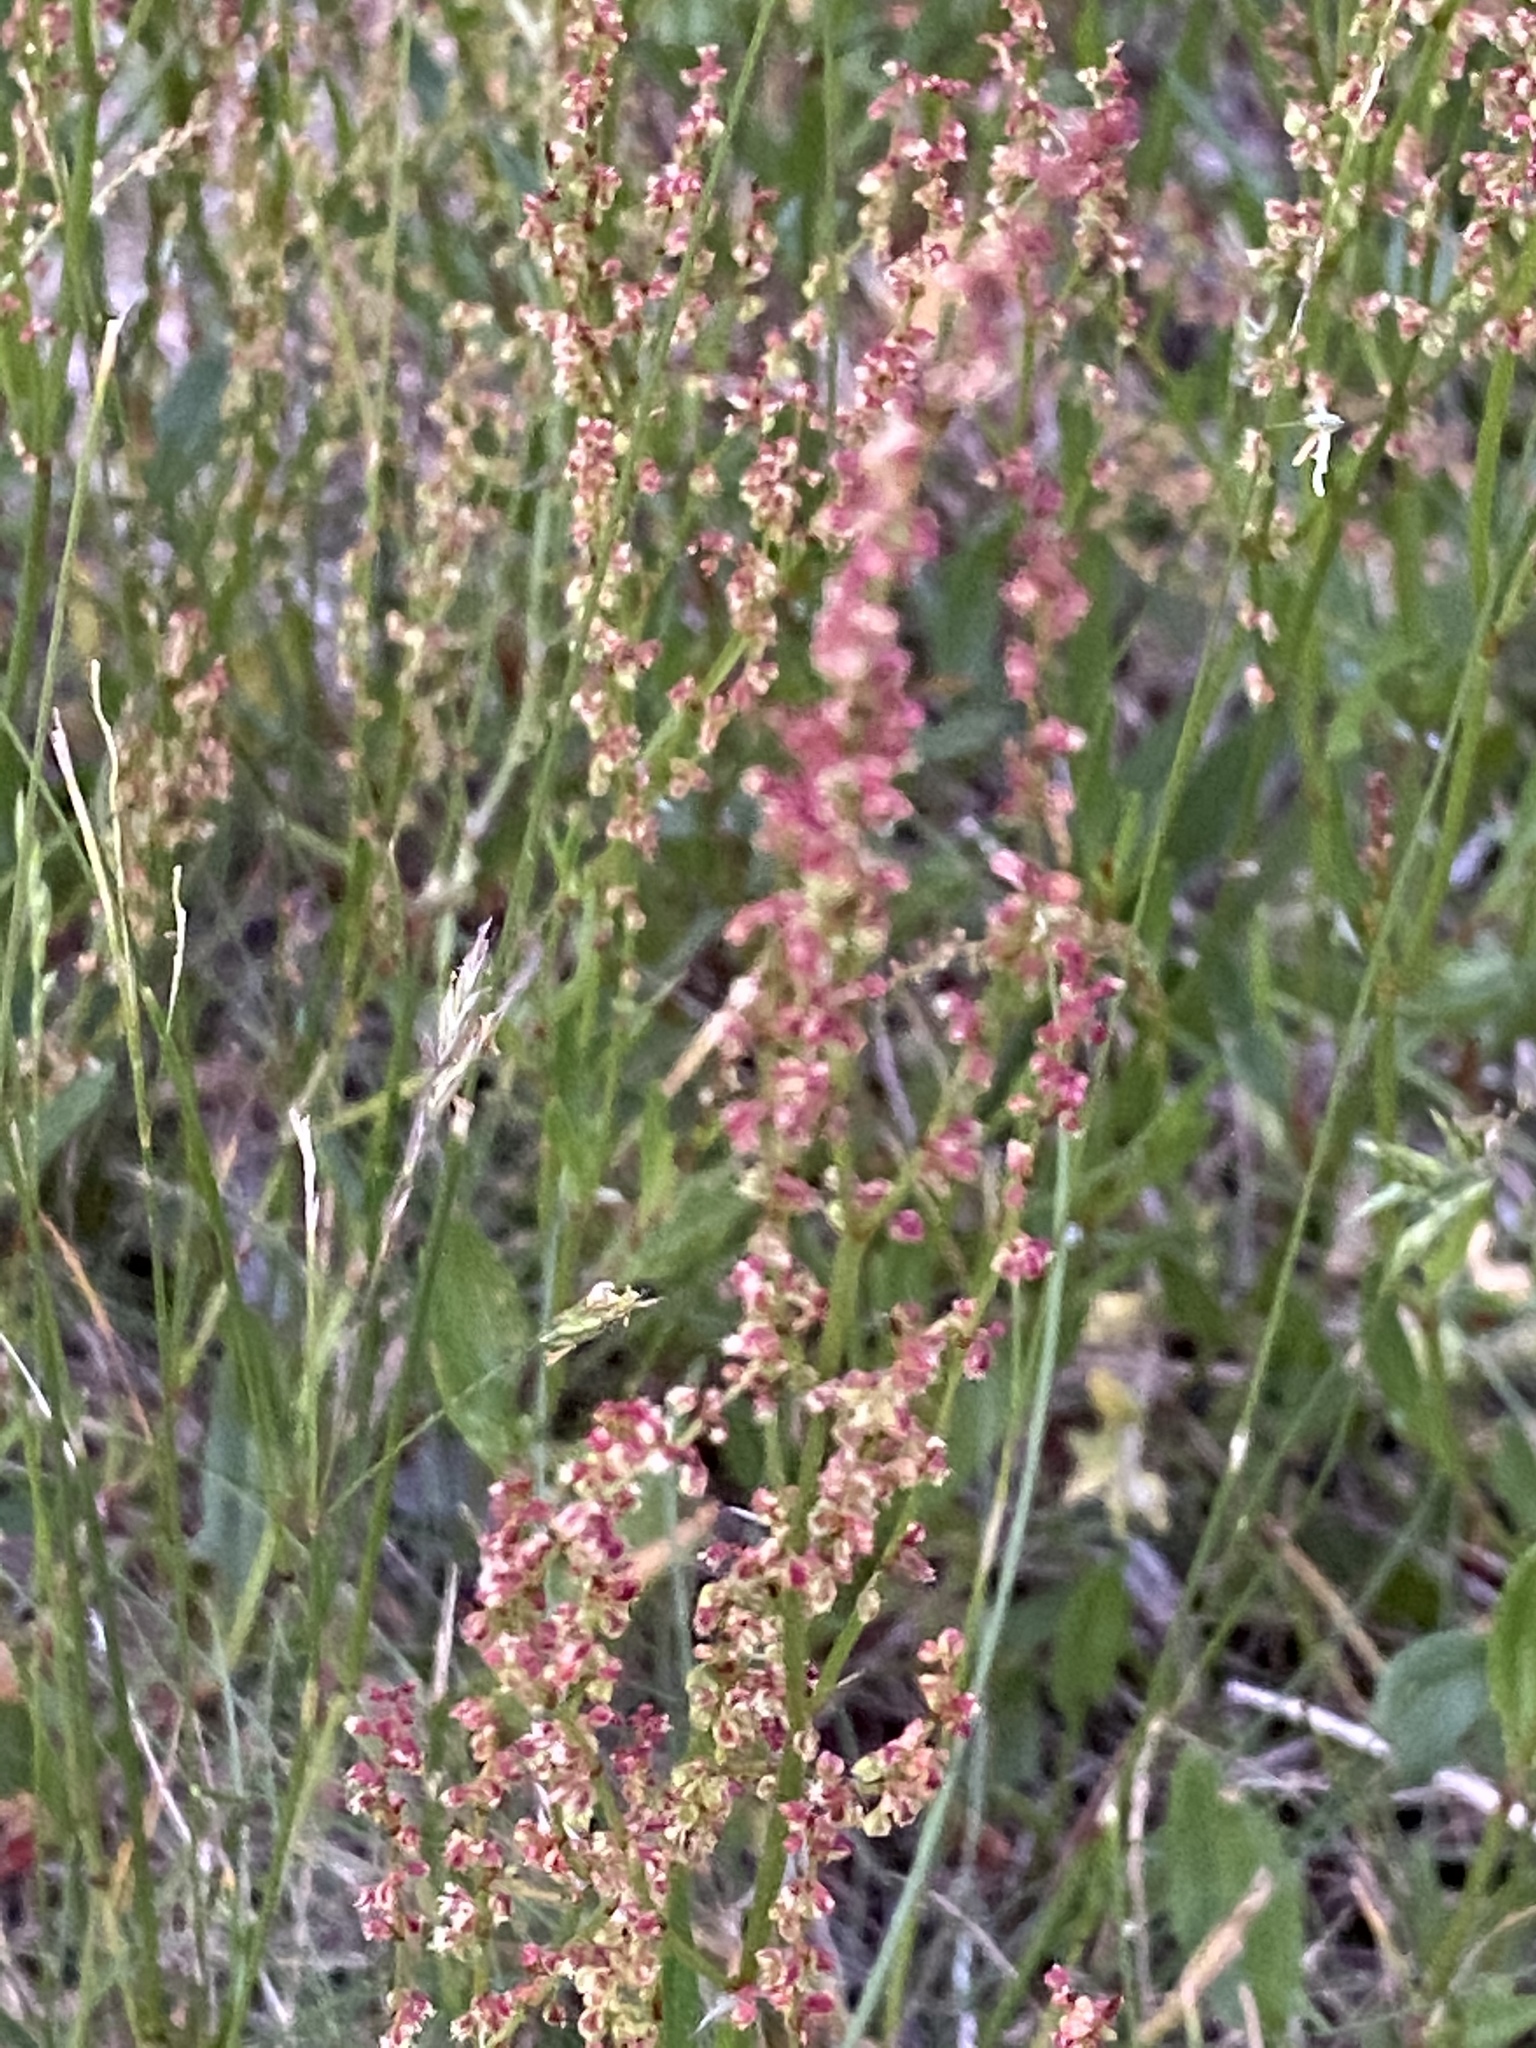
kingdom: Plantae
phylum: Tracheophyta
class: Magnoliopsida
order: Caryophyllales
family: Polygonaceae
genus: Rumex
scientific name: Rumex acetosella
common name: Common sheep sorrel
